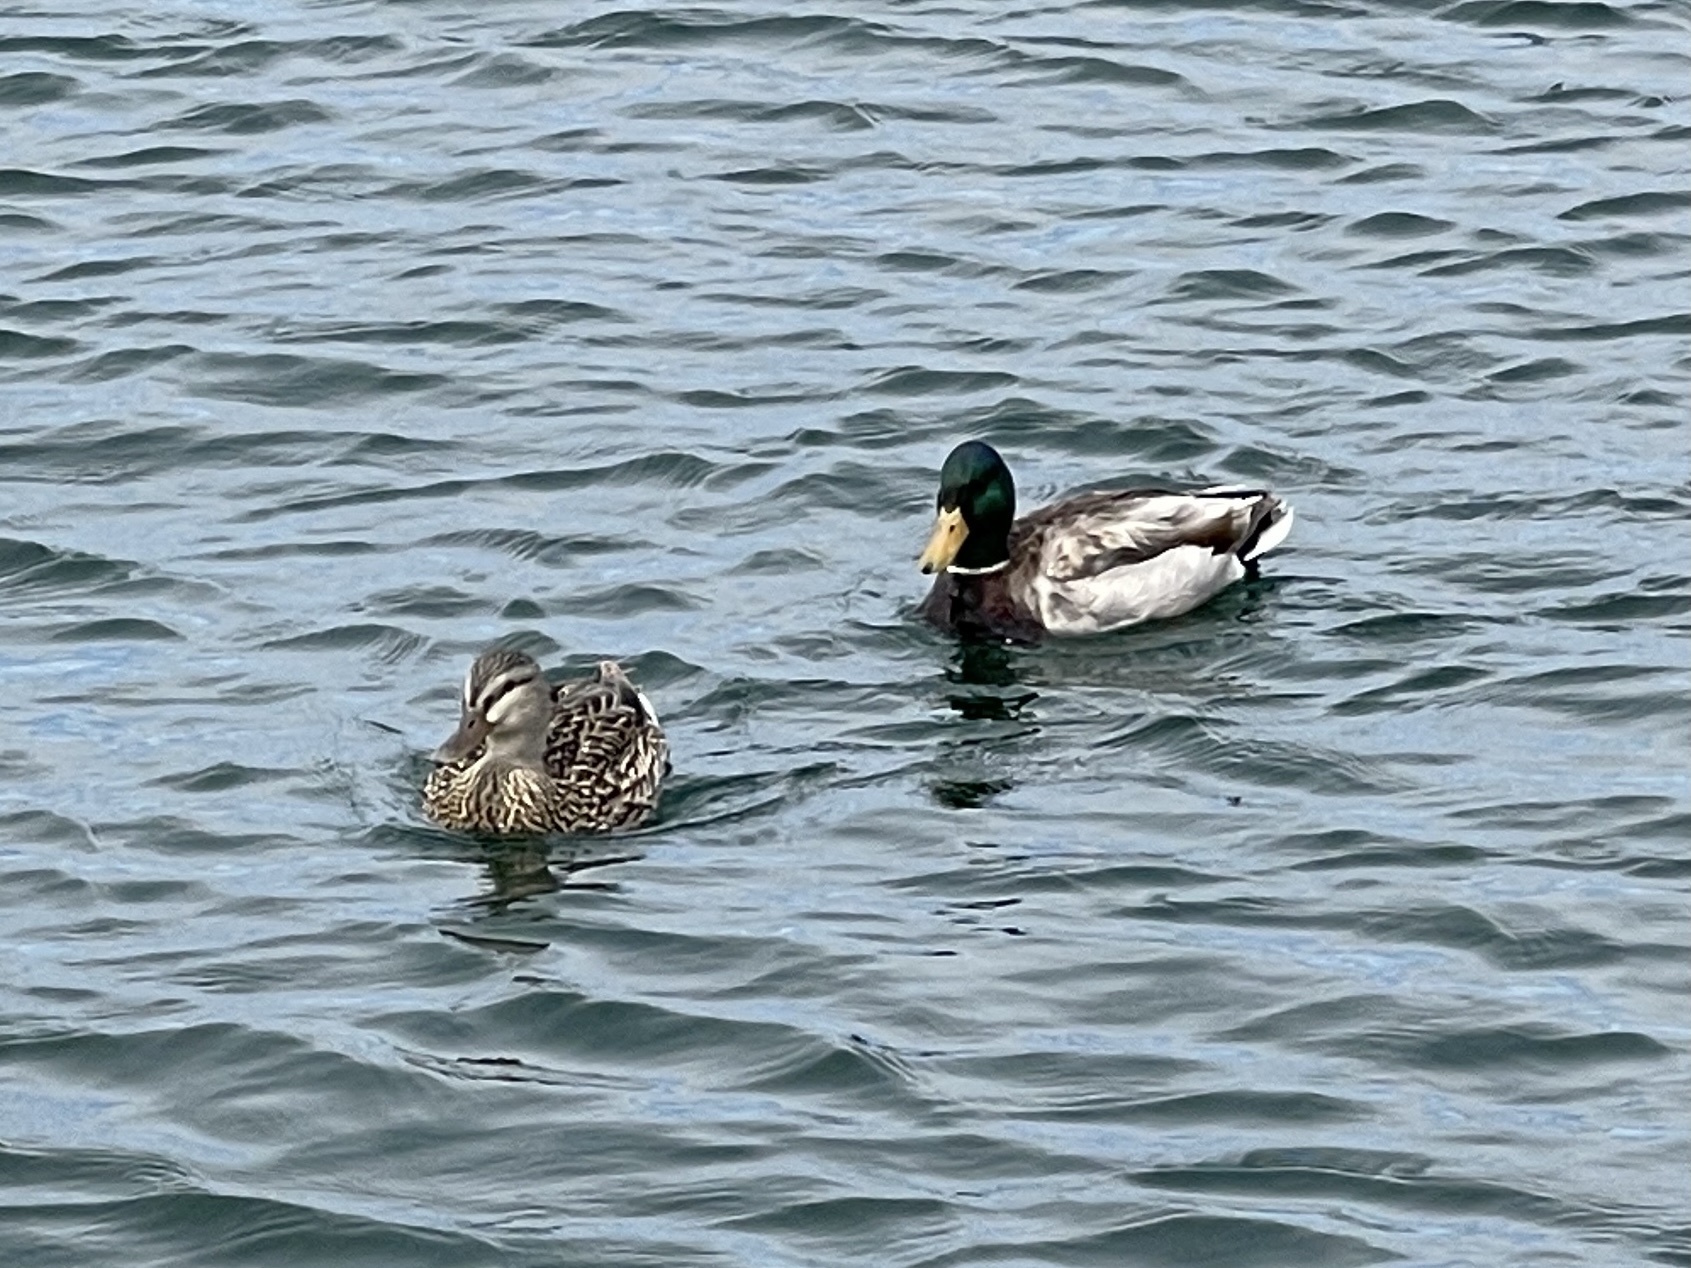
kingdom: Animalia
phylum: Chordata
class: Aves
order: Anseriformes
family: Anatidae
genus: Anas
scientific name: Anas platyrhynchos
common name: Mallard
